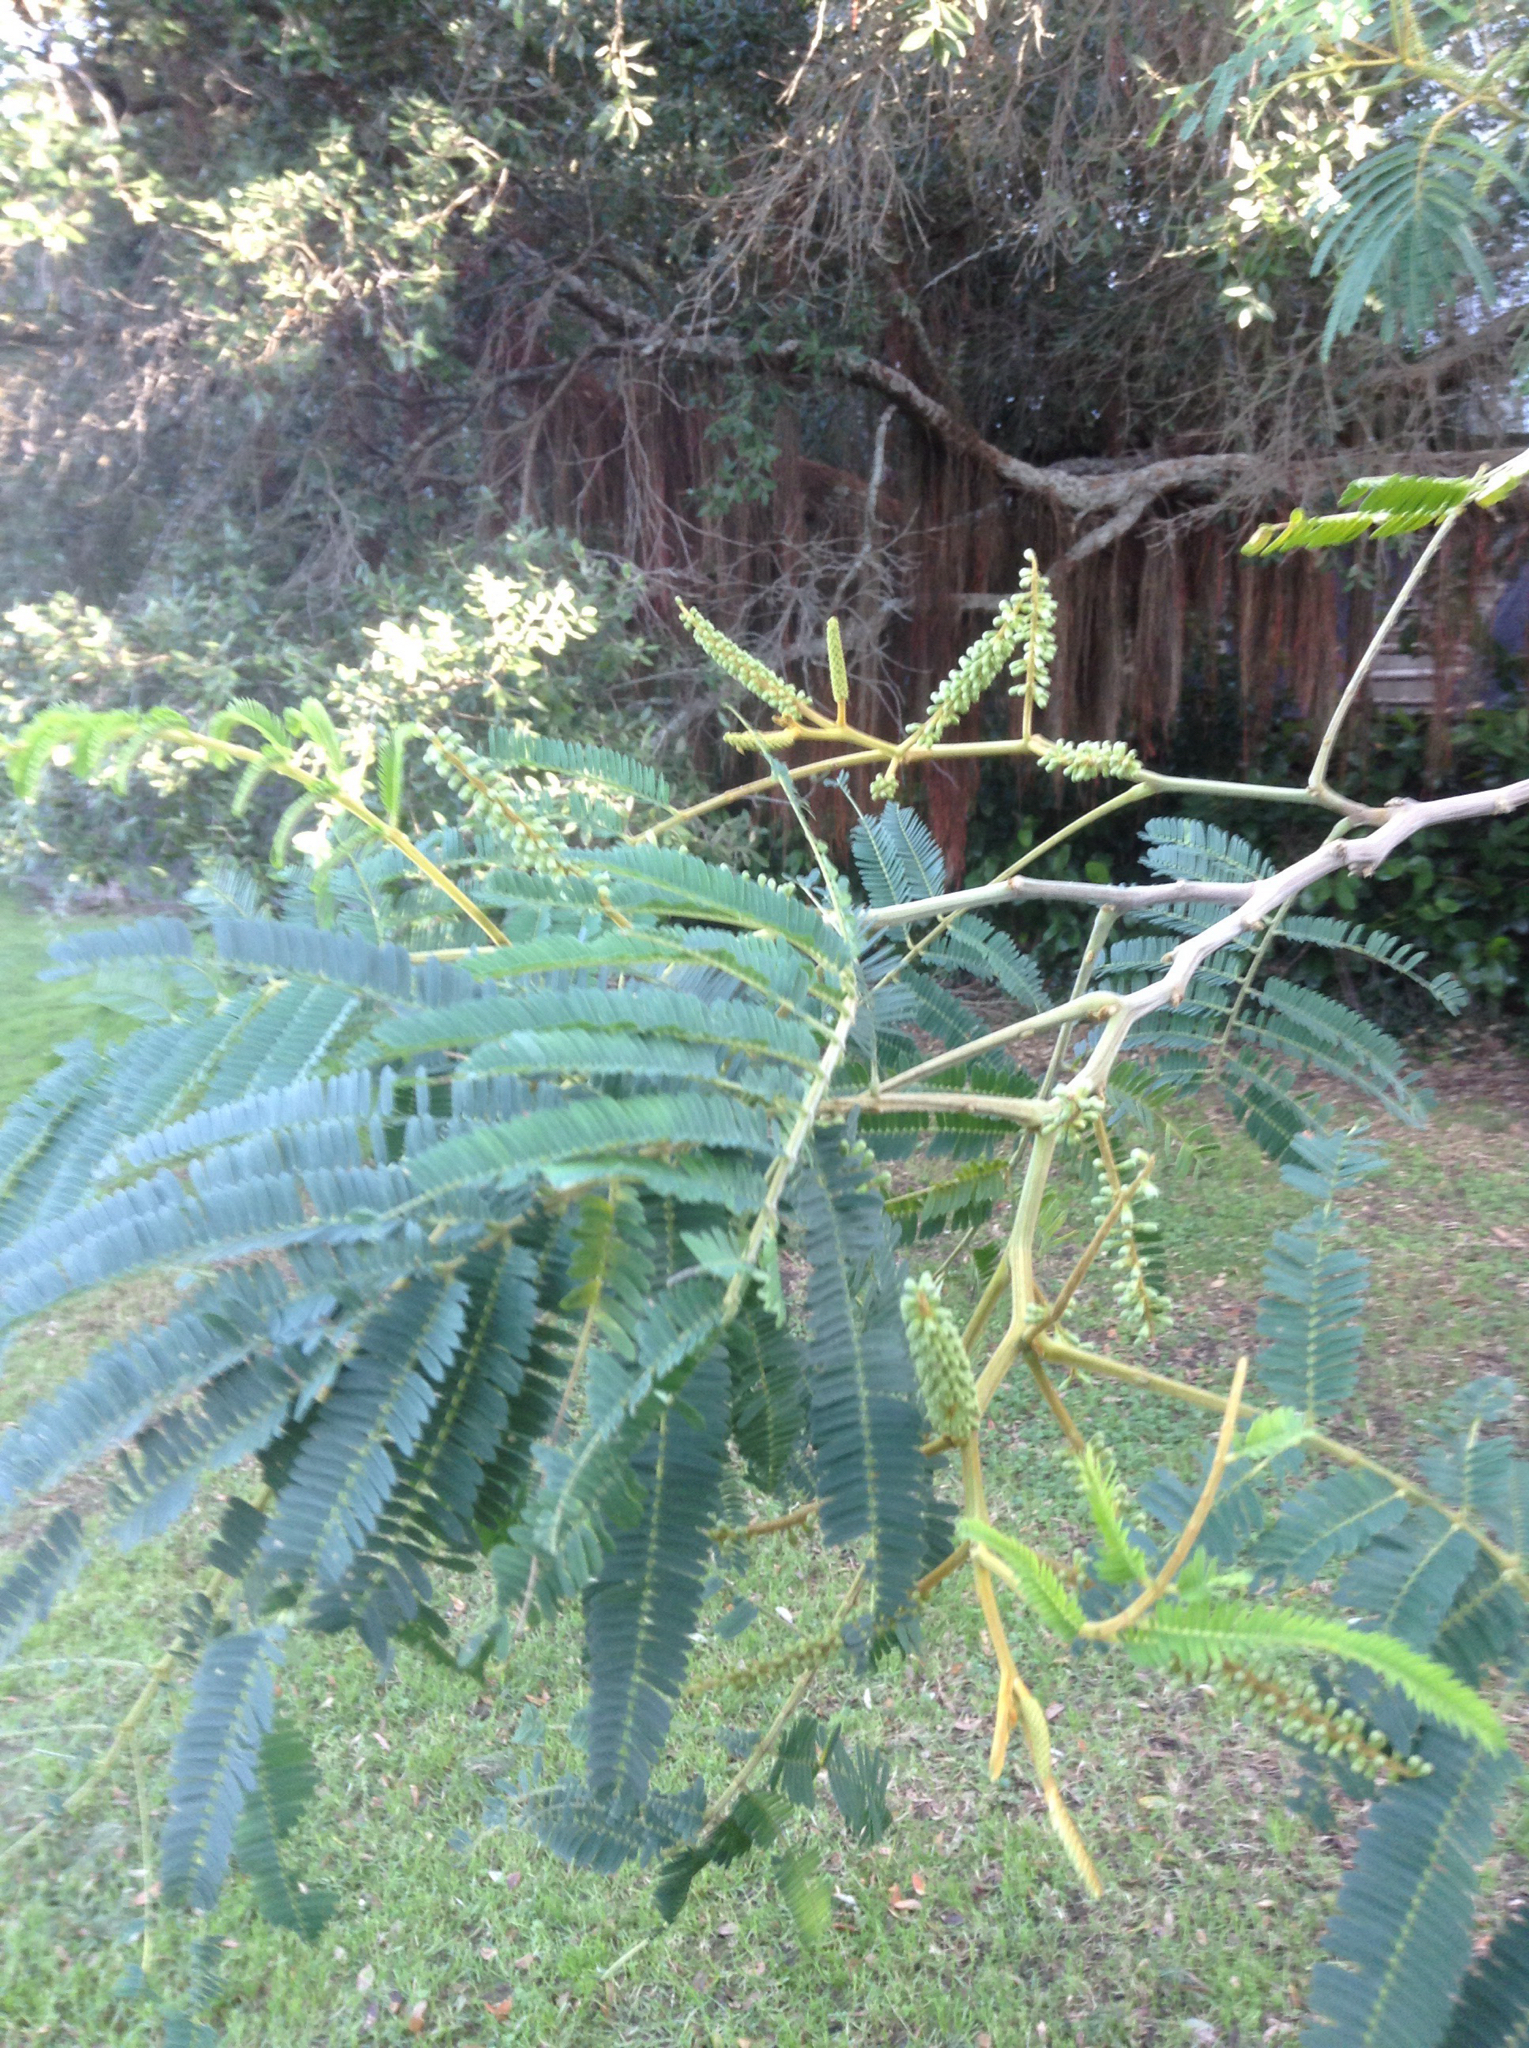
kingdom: Plantae
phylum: Tracheophyta
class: Magnoliopsida
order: Fabales
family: Fabaceae
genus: Paraserianthes
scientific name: Paraserianthes lophantha
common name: Plume albizia
